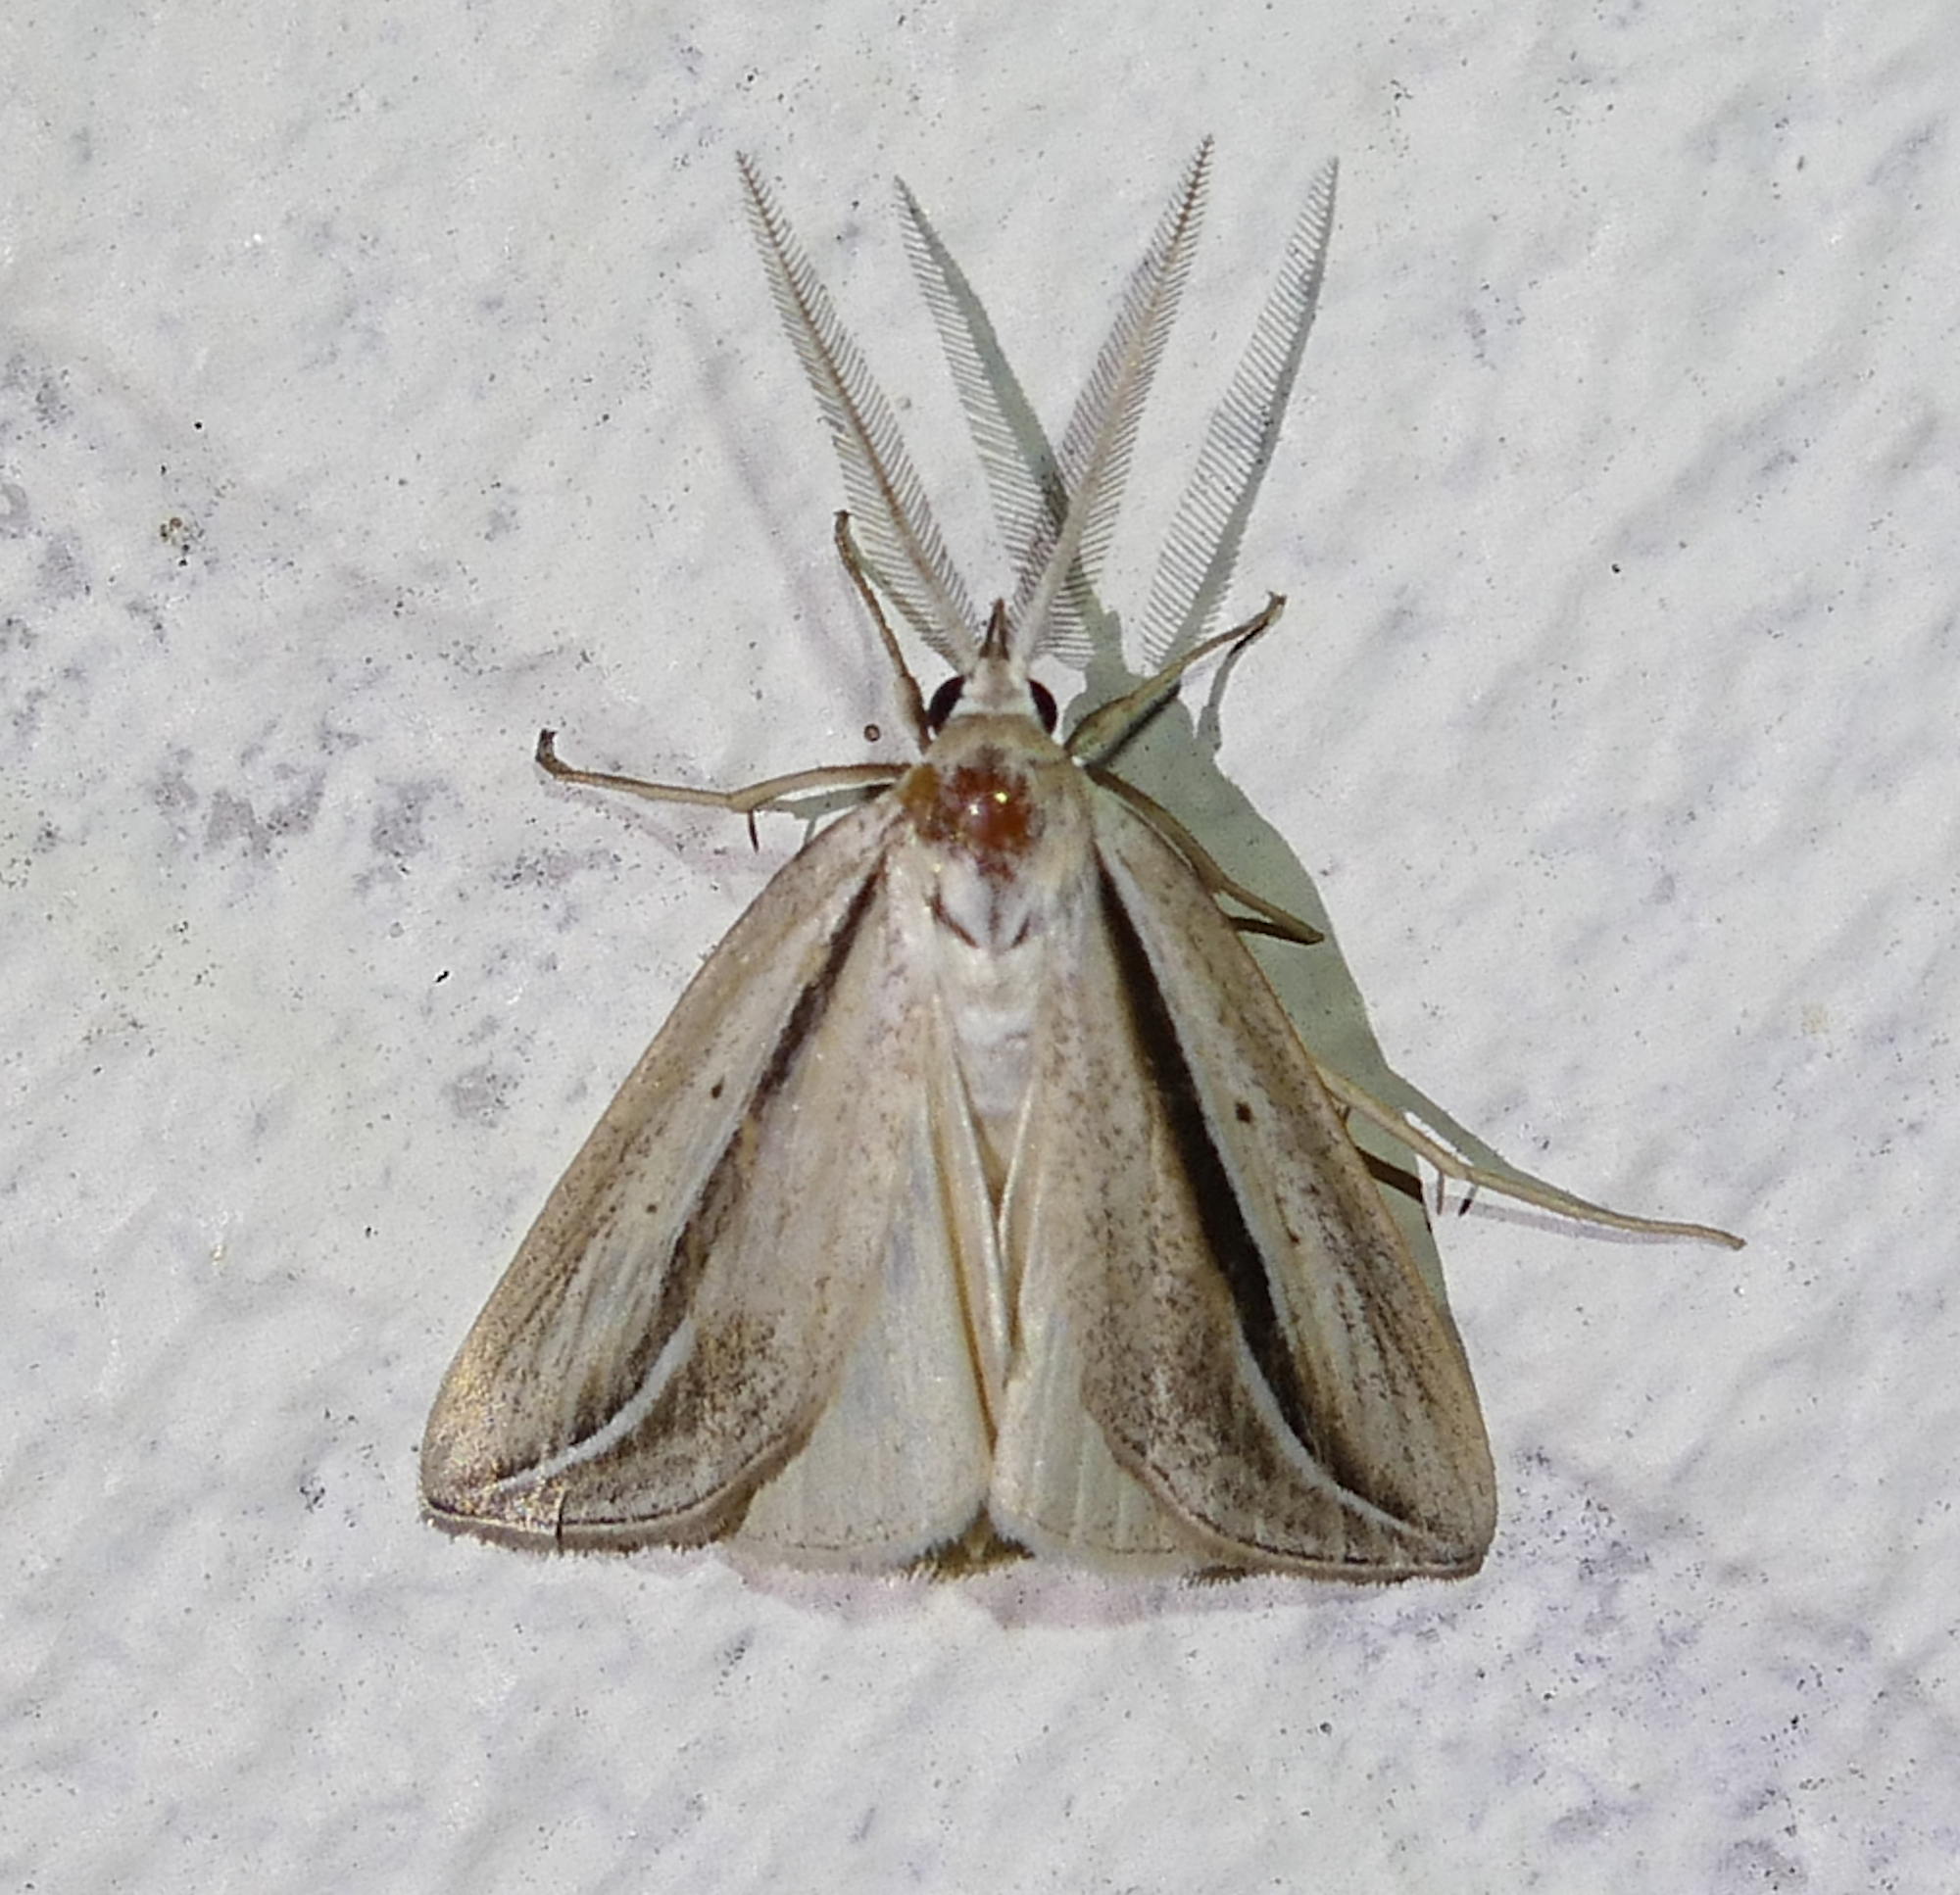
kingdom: Animalia
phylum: Arthropoda
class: Insecta
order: Lepidoptera
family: Erebidae
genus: Doryodes
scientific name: Doryodes latistriga
